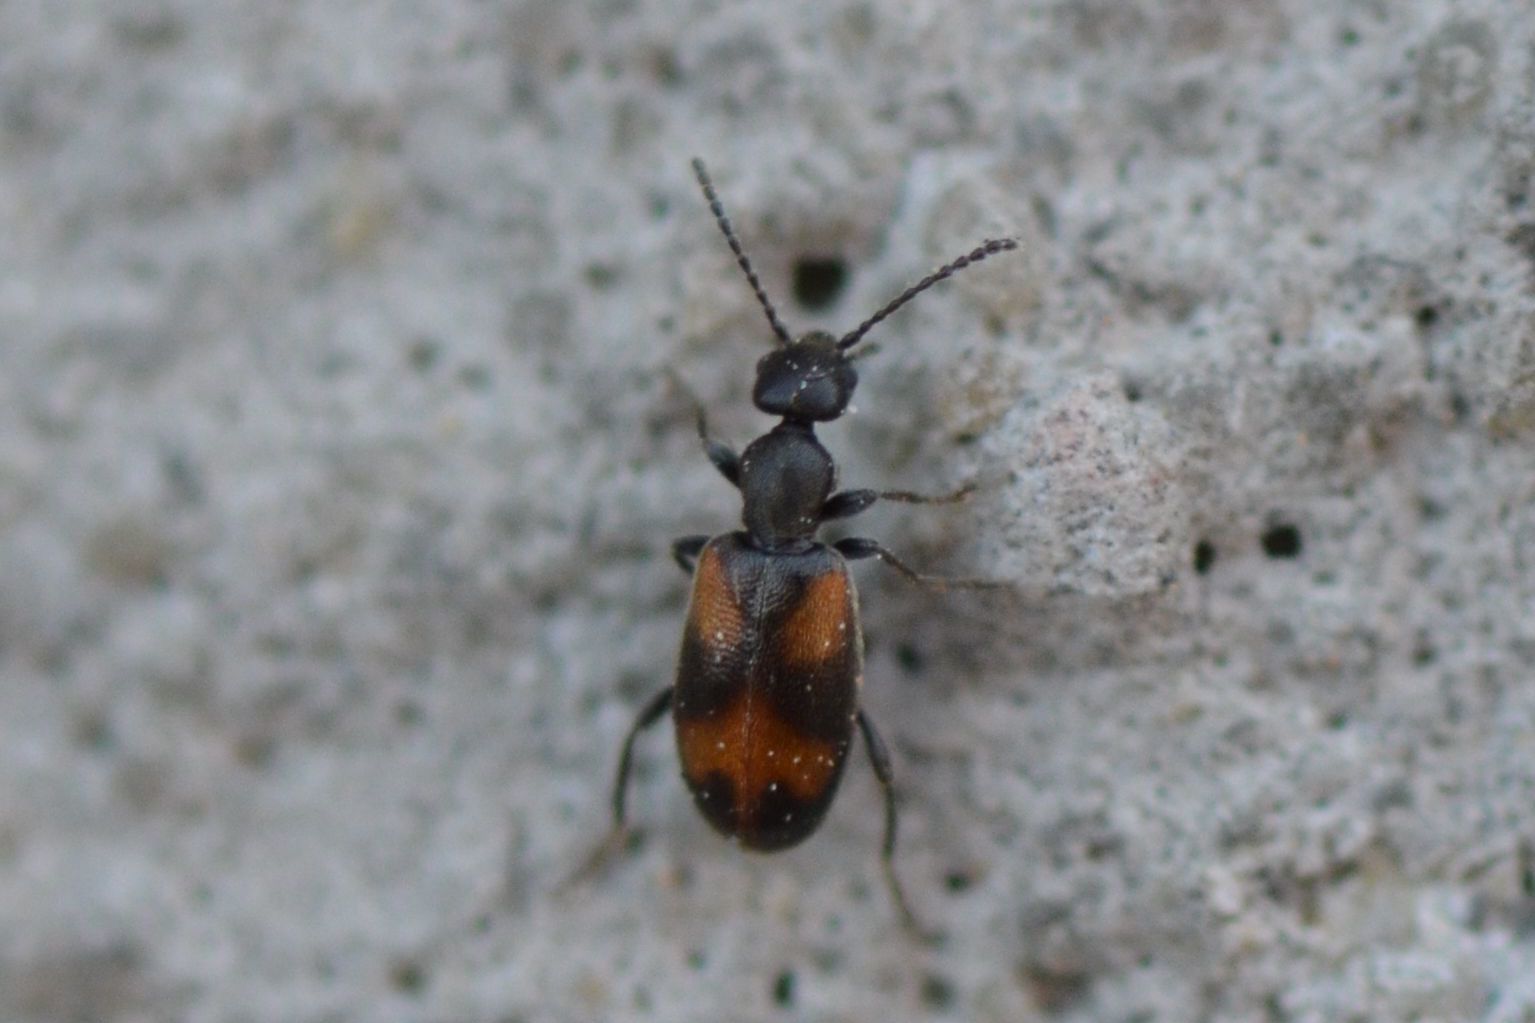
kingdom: Animalia
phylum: Arthropoda
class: Insecta
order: Coleoptera
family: Anthicidae
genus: Anthicus
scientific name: Anthicus antherinus
